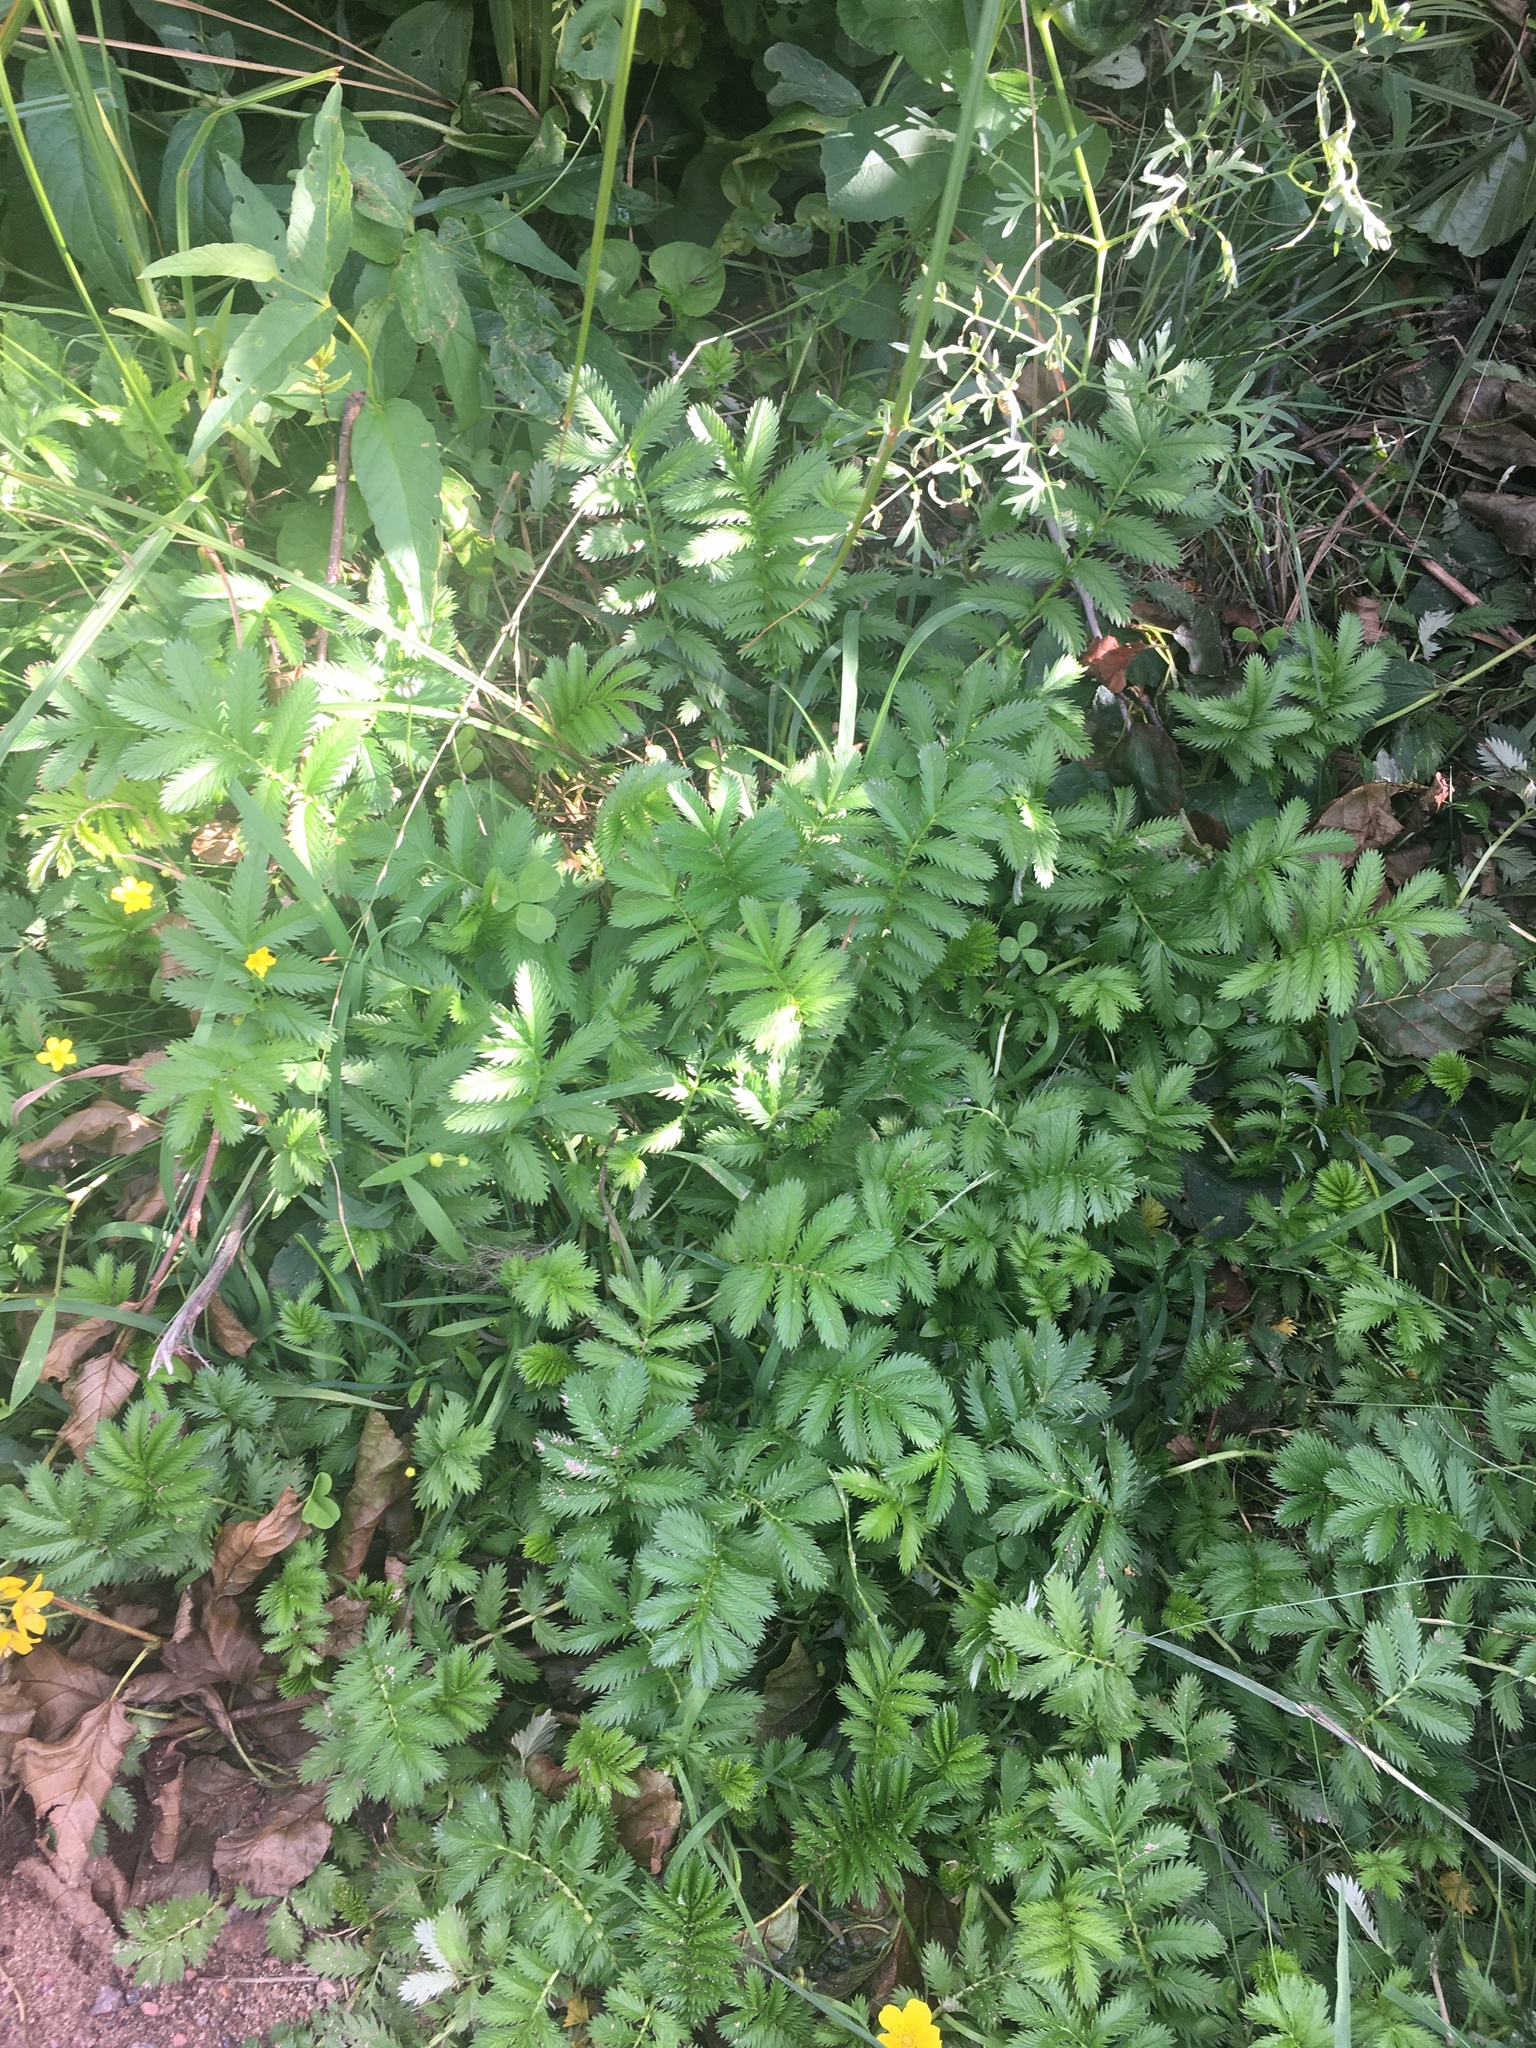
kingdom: Plantae
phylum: Tracheophyta
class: Magnoliopsida
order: Rosales
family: Rosaceae
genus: Argentina
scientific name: Argentina anserina
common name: Common silverweed
